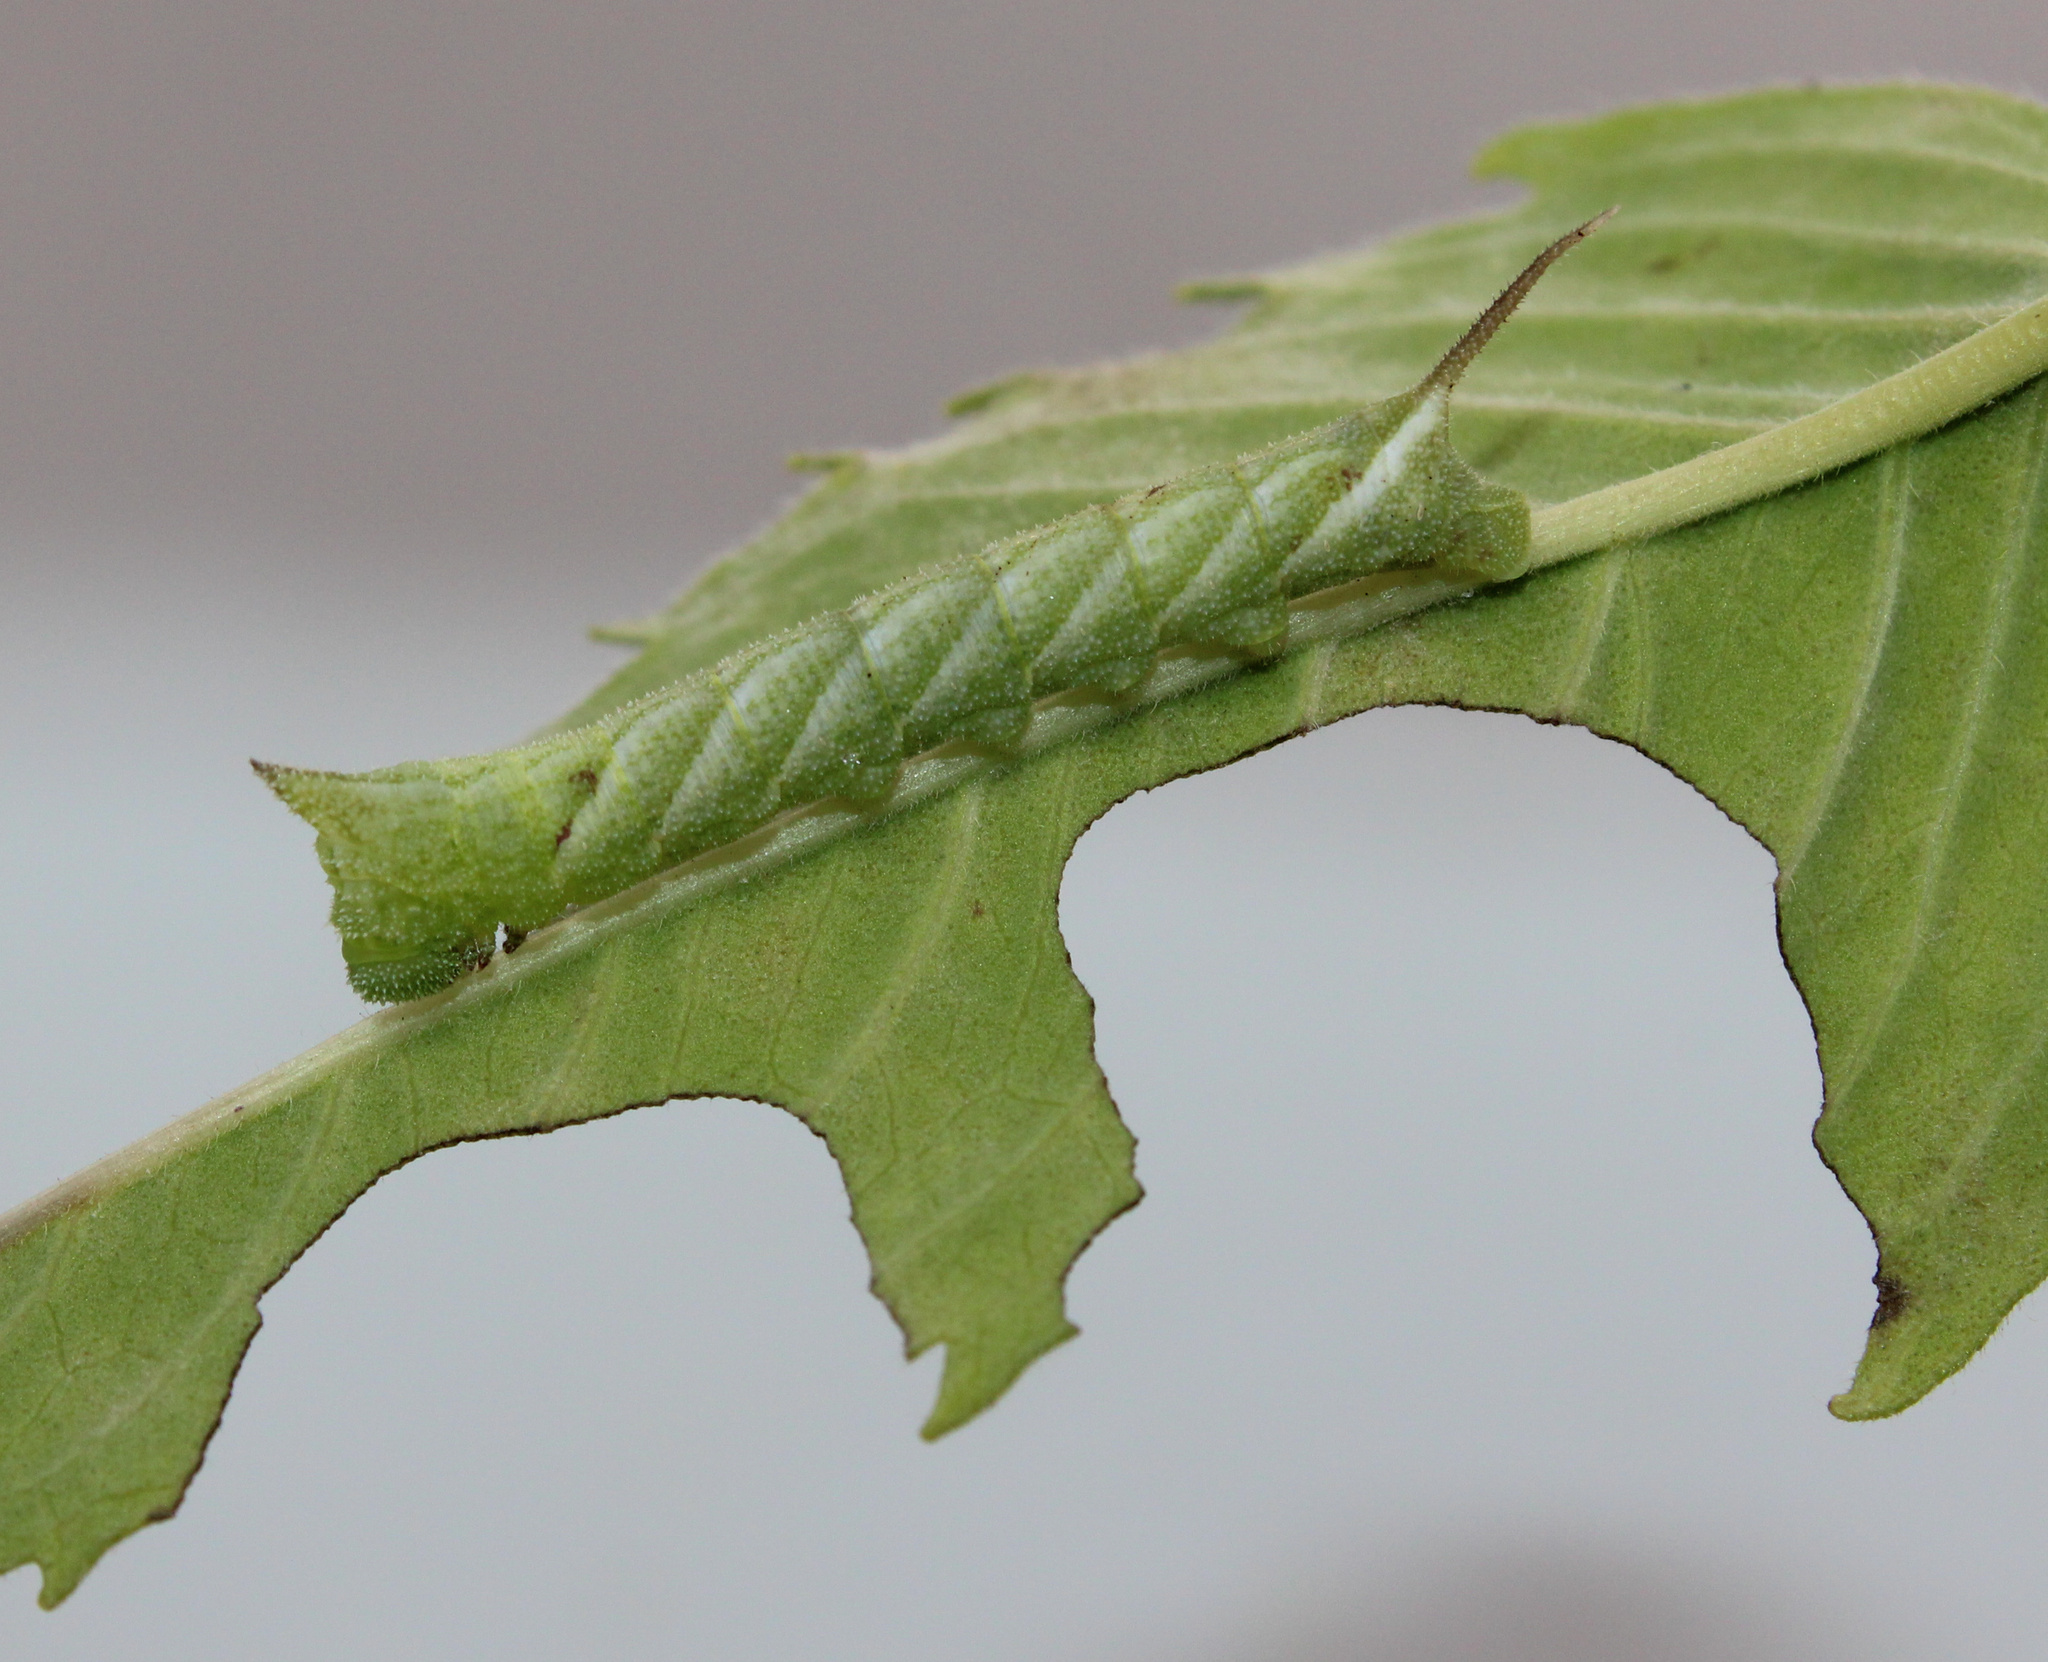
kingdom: Animalia
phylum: Arthropoda
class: Insecta
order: Lepidoptera
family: Sphingidae
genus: Lintneria
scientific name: Lintneria eremitus
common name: Hermit sphinx
